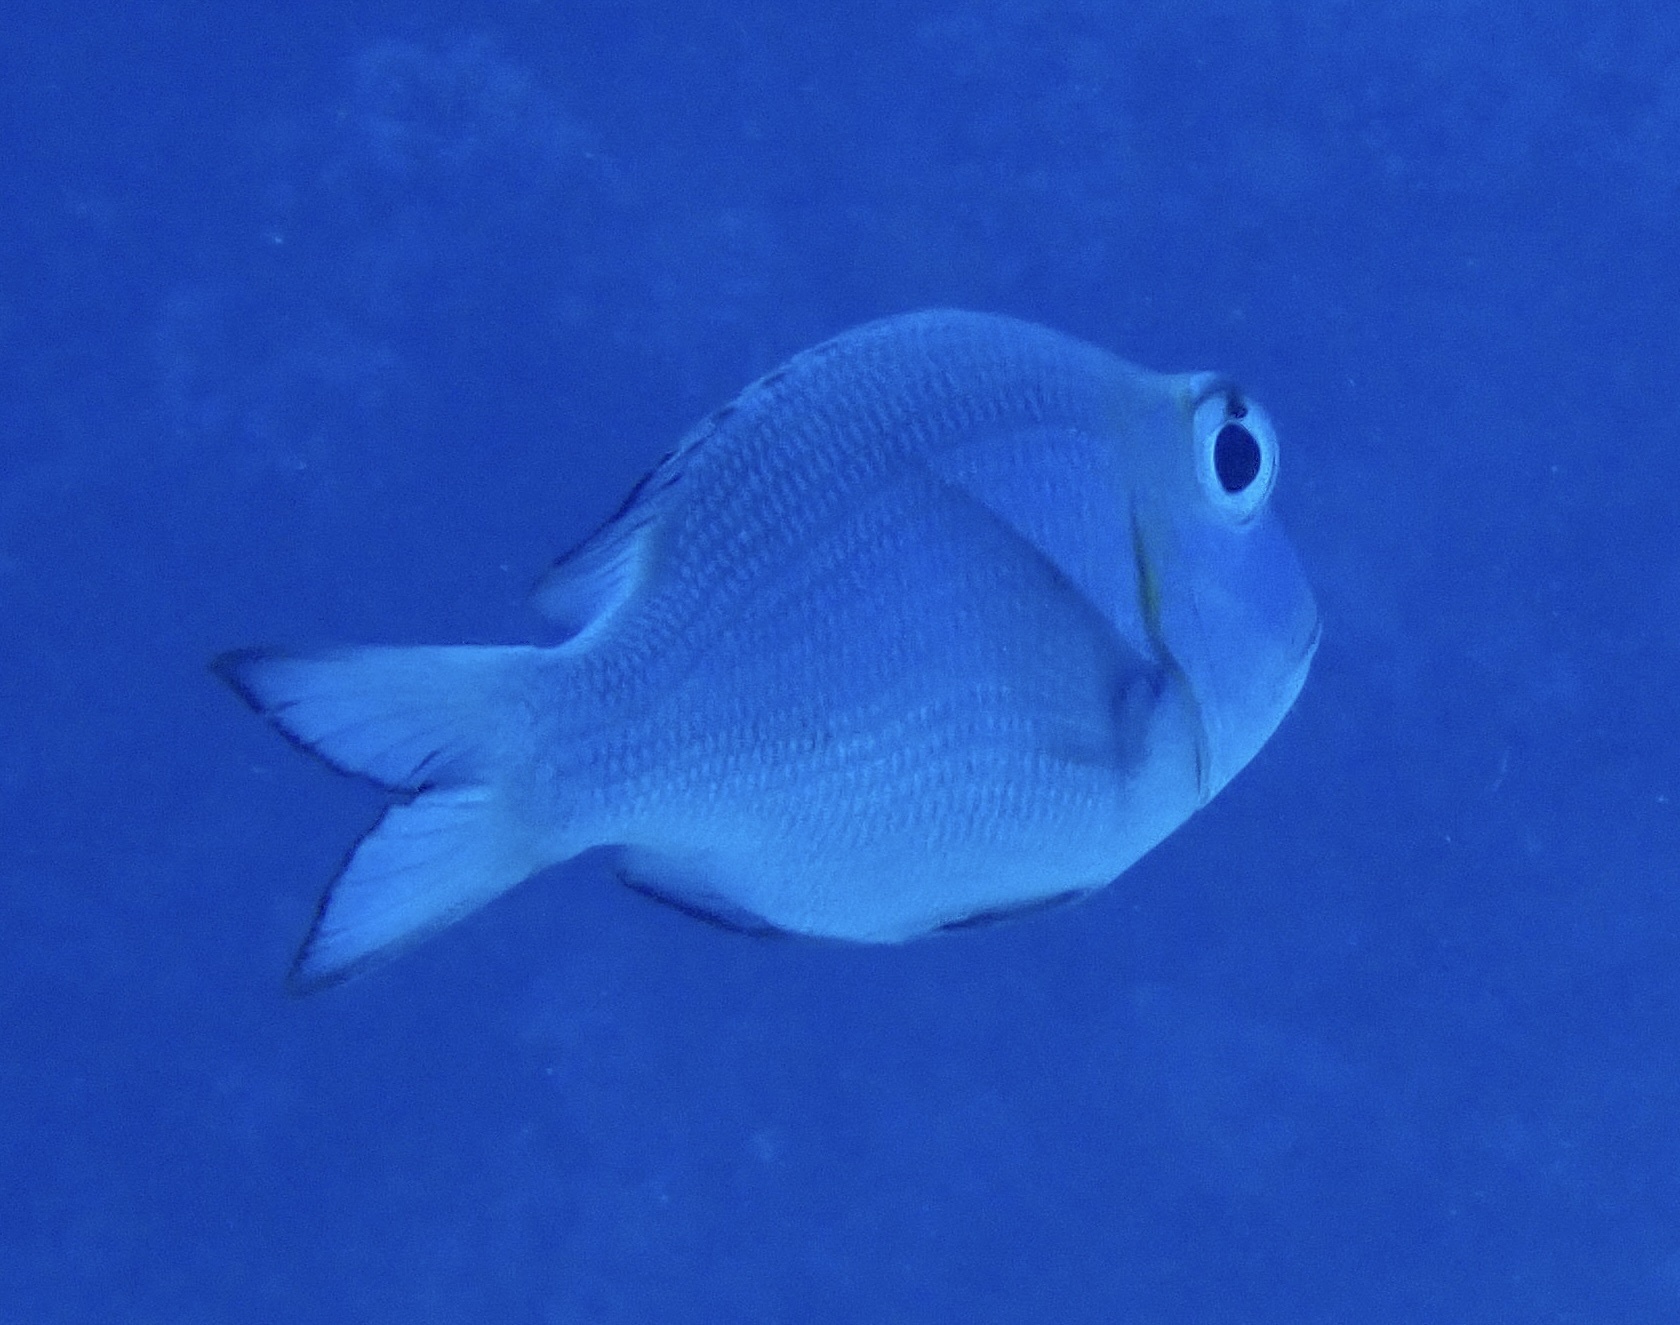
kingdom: Animalia
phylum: Chordata
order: Perciformes
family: Lethrinidae
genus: Monotaxis
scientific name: Monotaxis grandoculis
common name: Bigeye emperor
